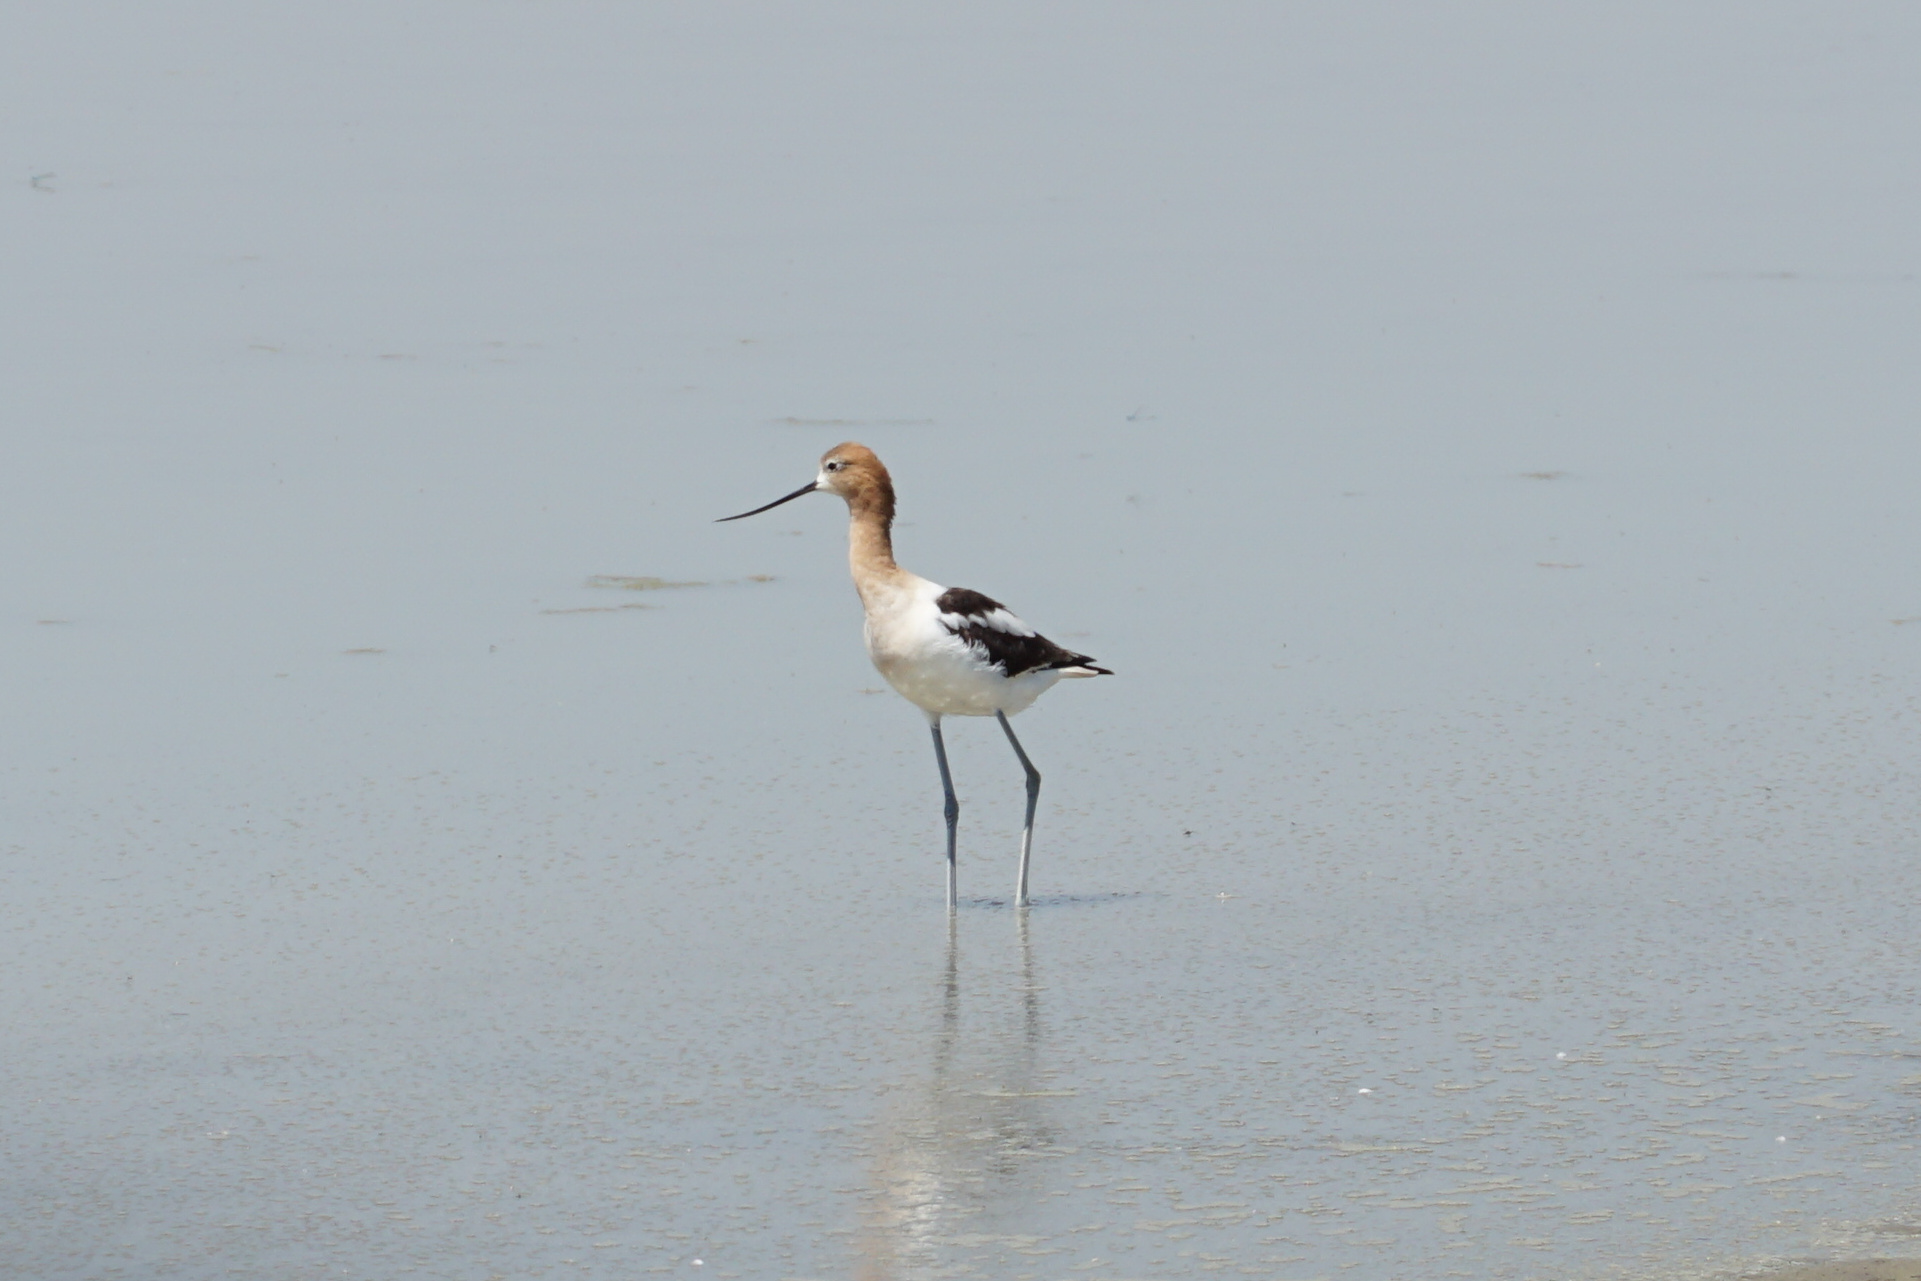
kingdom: Animalia
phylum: Chordata
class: Aves
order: Charadriiformes
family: Recurvirostridae
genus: Recurvirostra
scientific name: Recurvirostra americana
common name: American avocet
